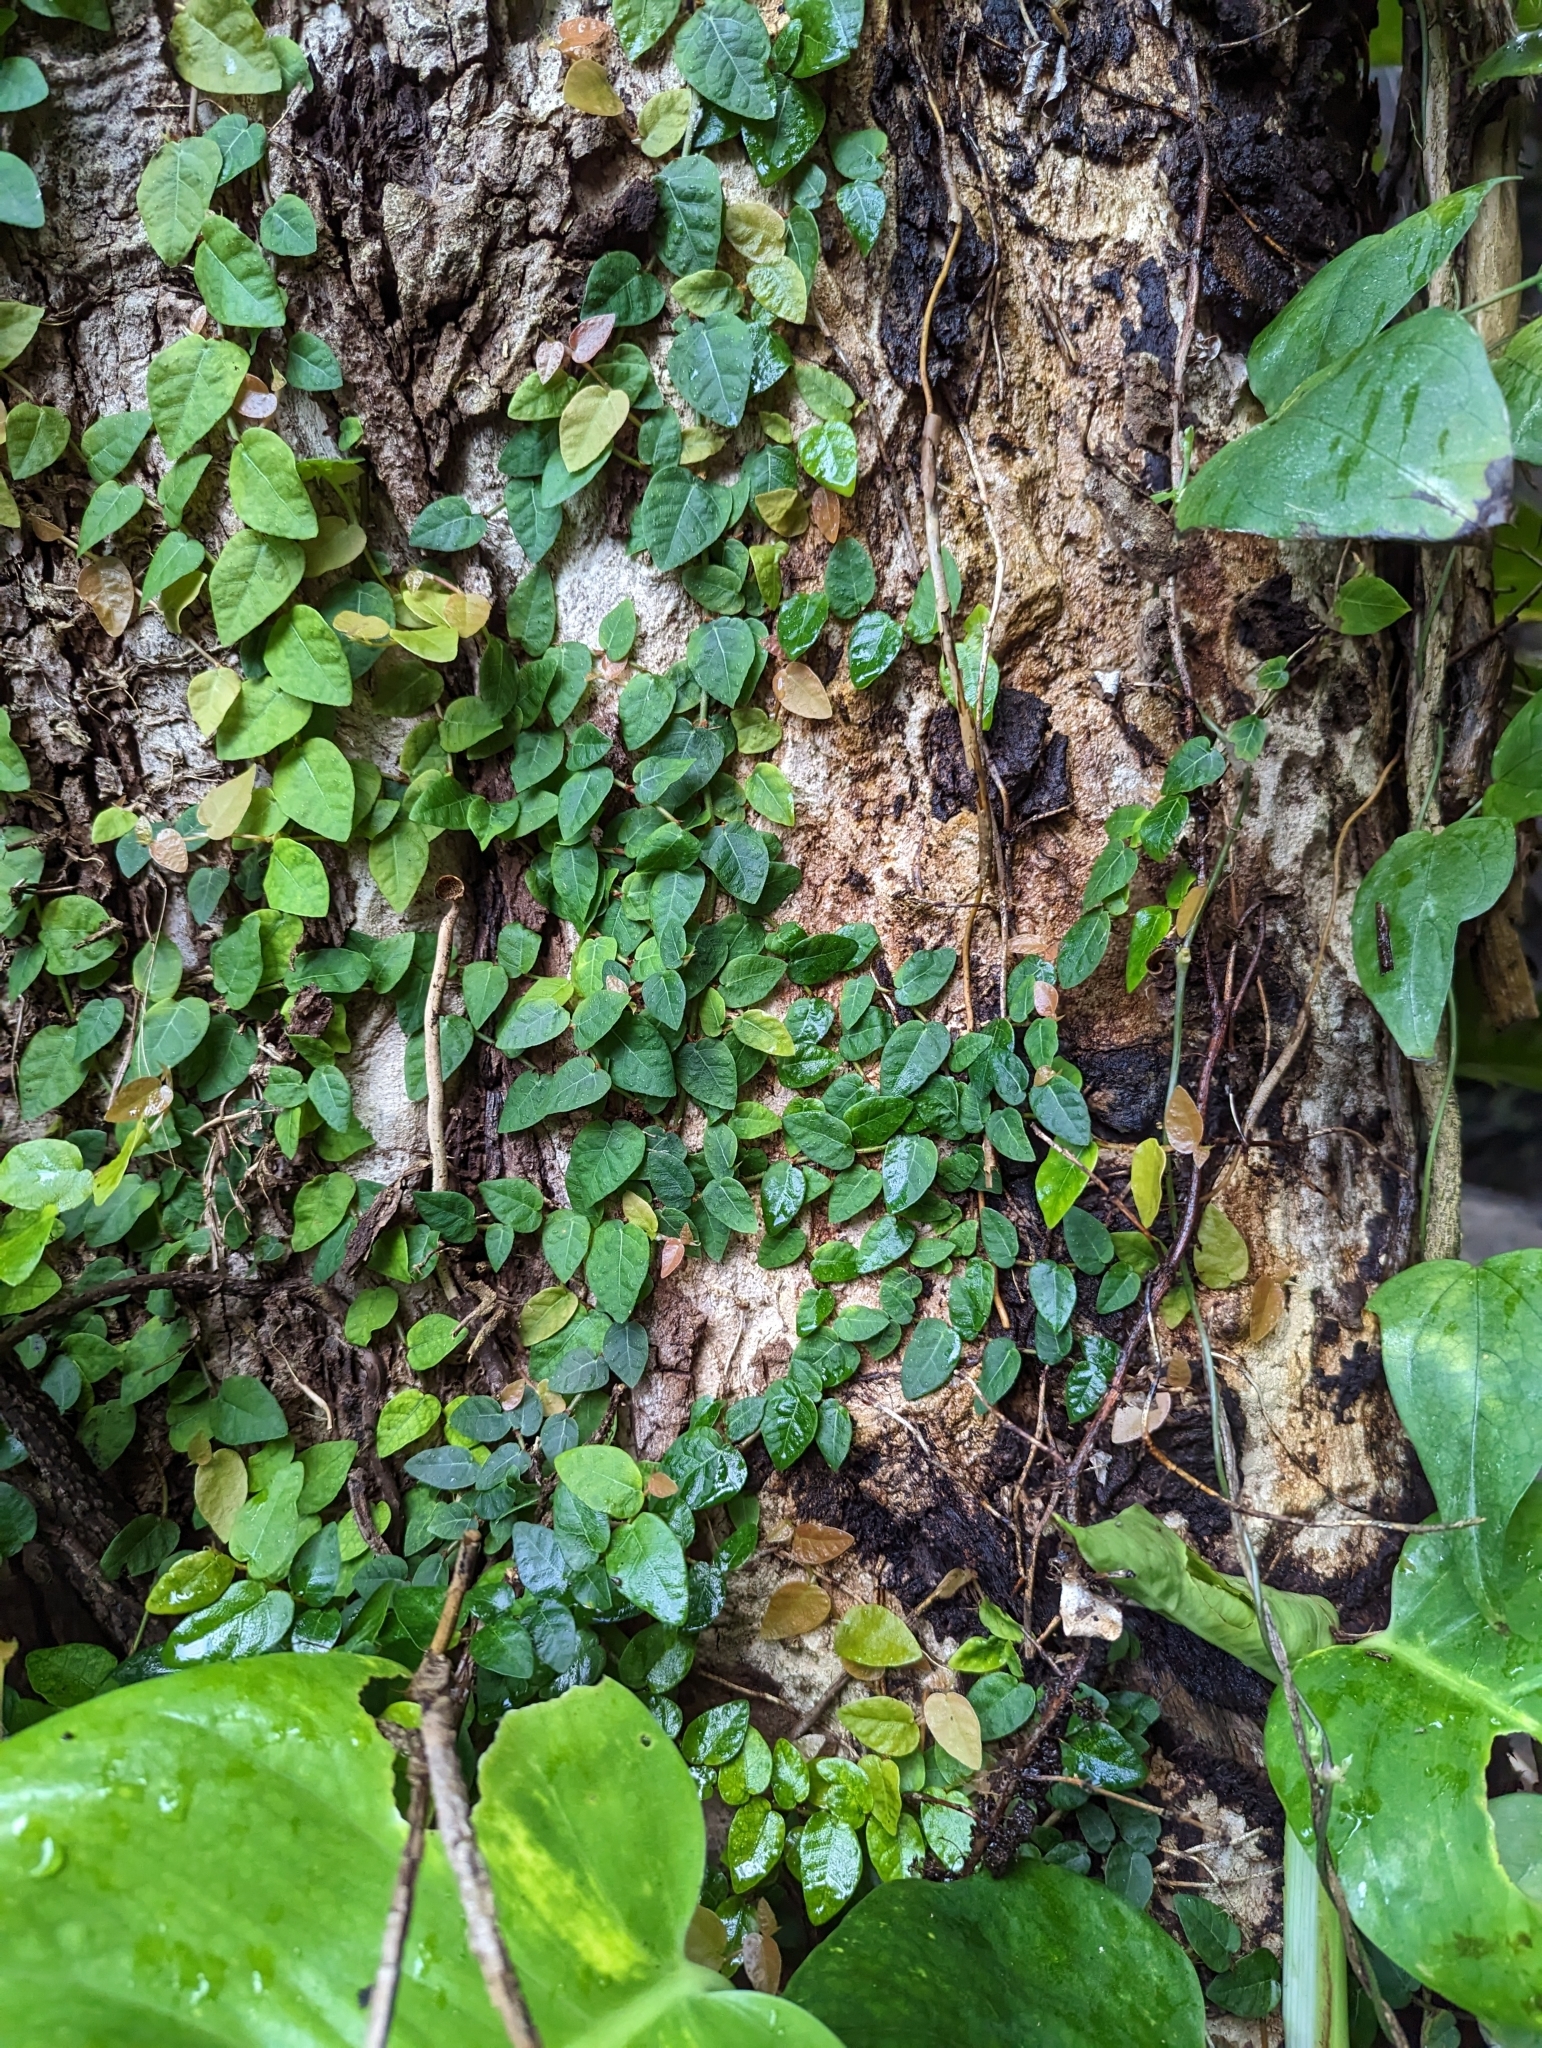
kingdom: Plantae
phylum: Tracheophyta
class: Magnoliopsida
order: Rosales
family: Moraceae
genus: Ficus
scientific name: Ficus pumila
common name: Climbingfig
